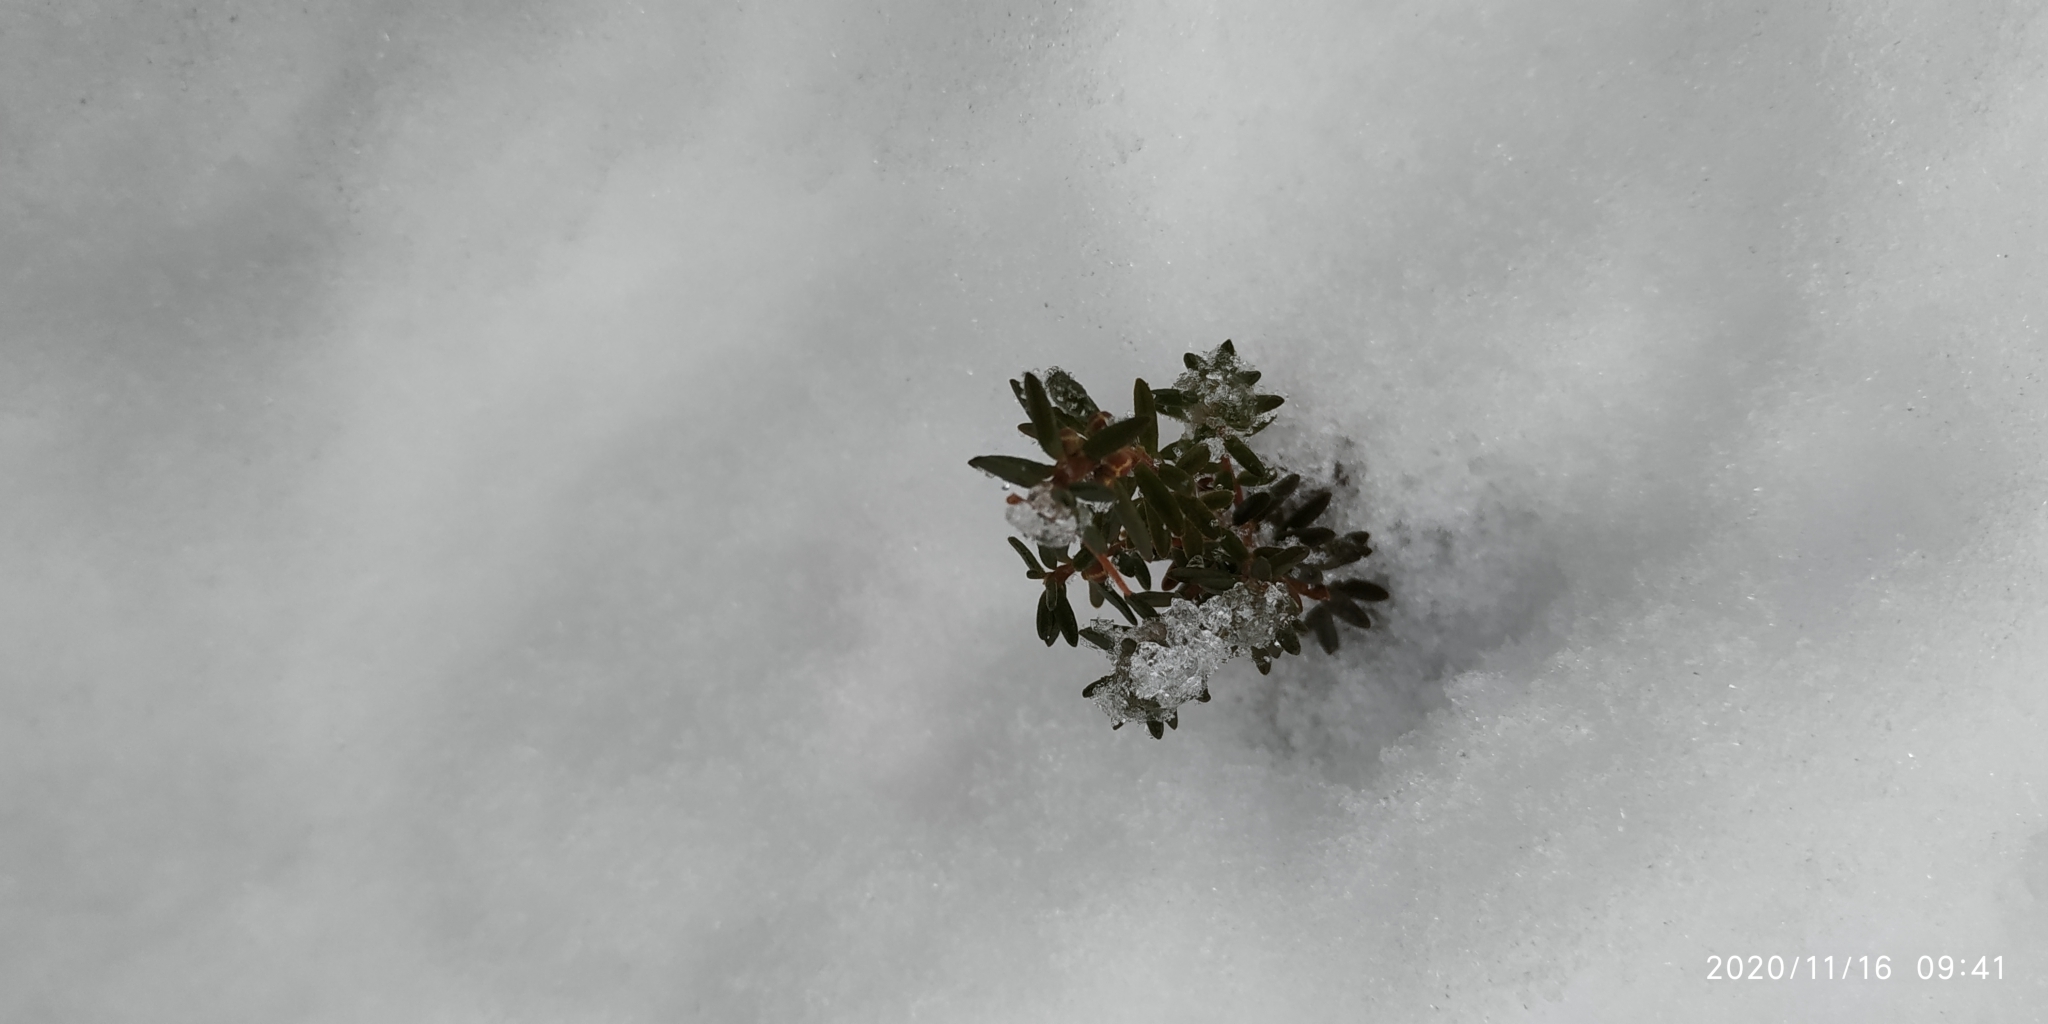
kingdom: Plantae
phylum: Tracheophyta
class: Magnoliopsida
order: Ericales
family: Ericaceae
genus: Empetrum
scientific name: Empetrum nigrum
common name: Black crowberry
